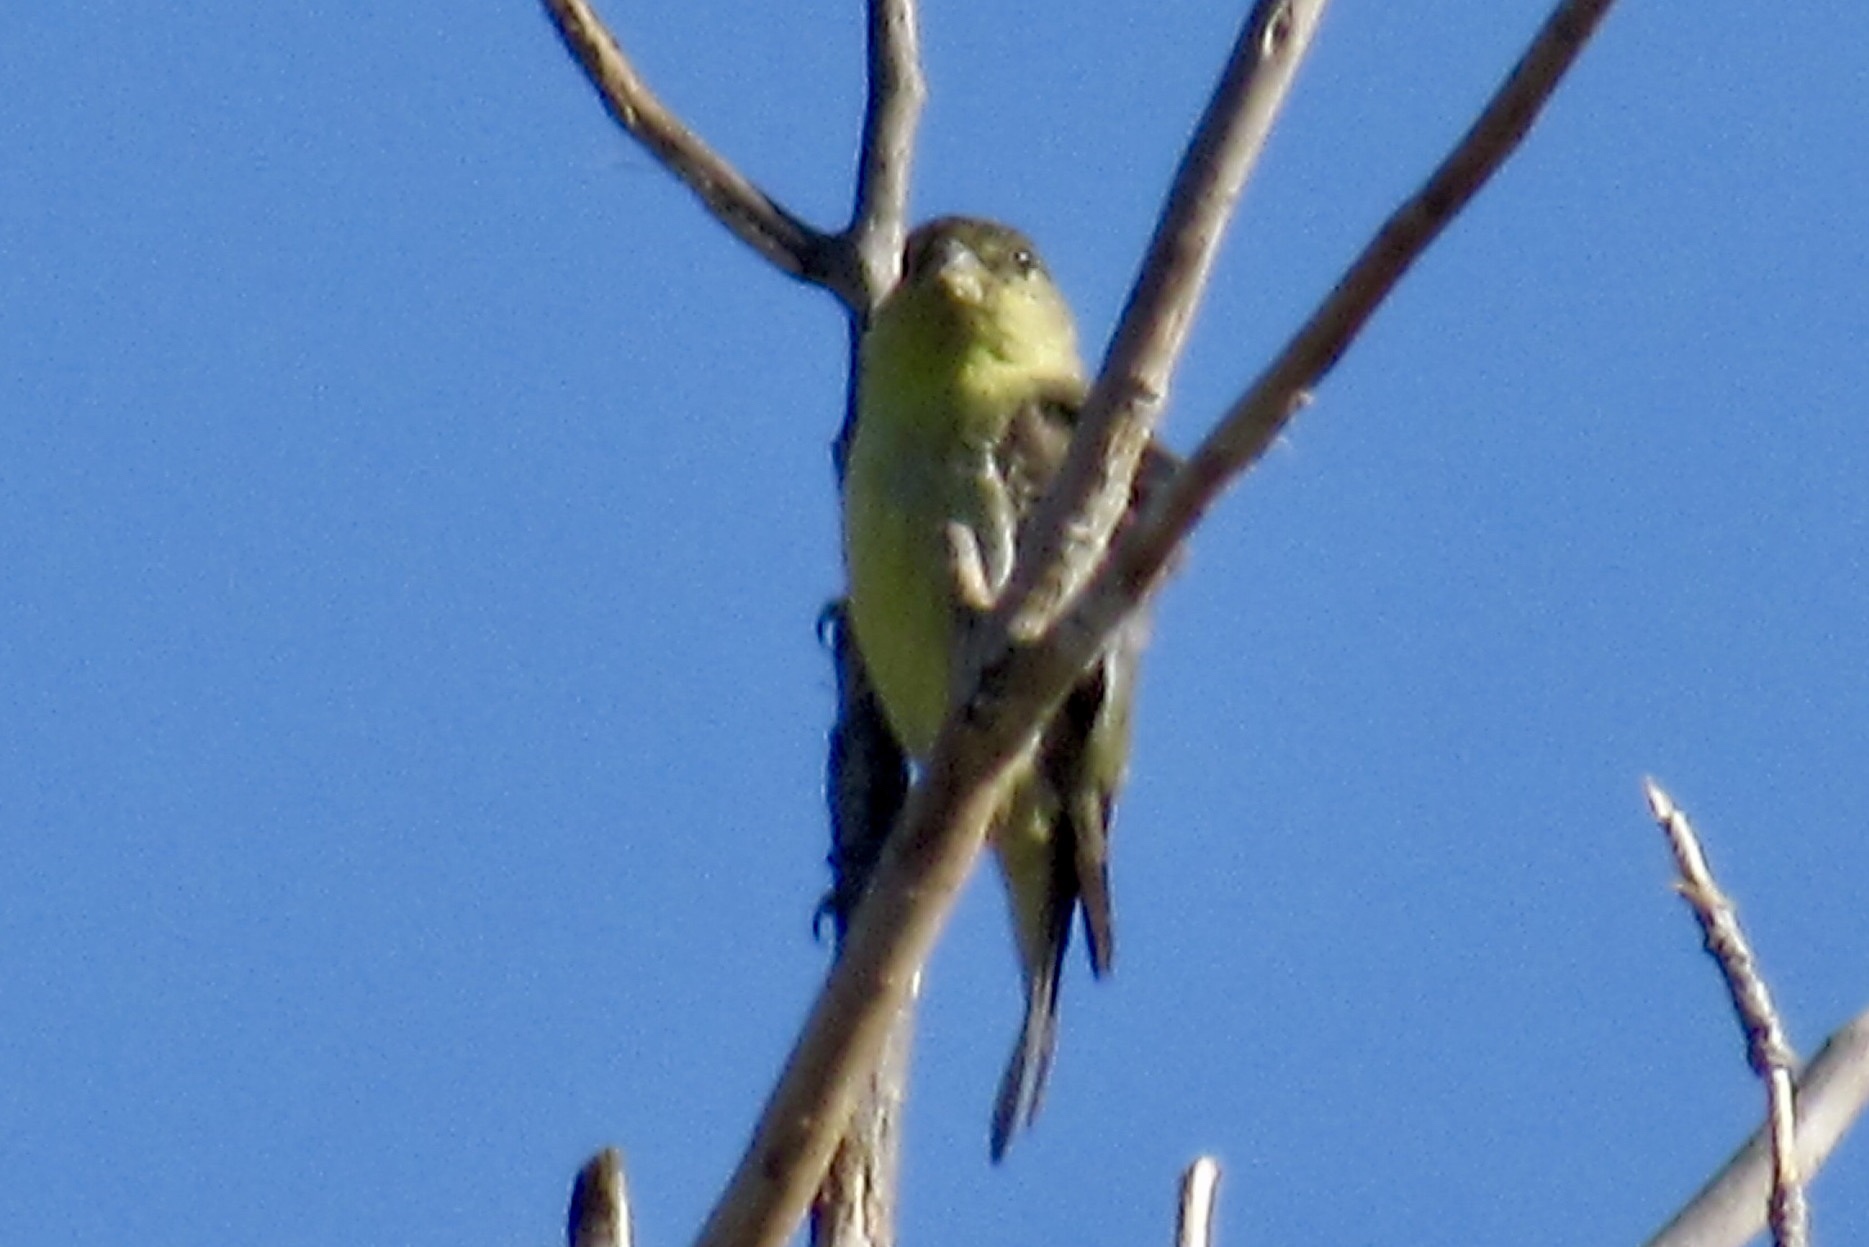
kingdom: Animalia
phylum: Chordata
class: Aves
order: Passeriformes
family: Fringillidae
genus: Spinus
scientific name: Spinus psaltria
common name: Lesser goldfinch
